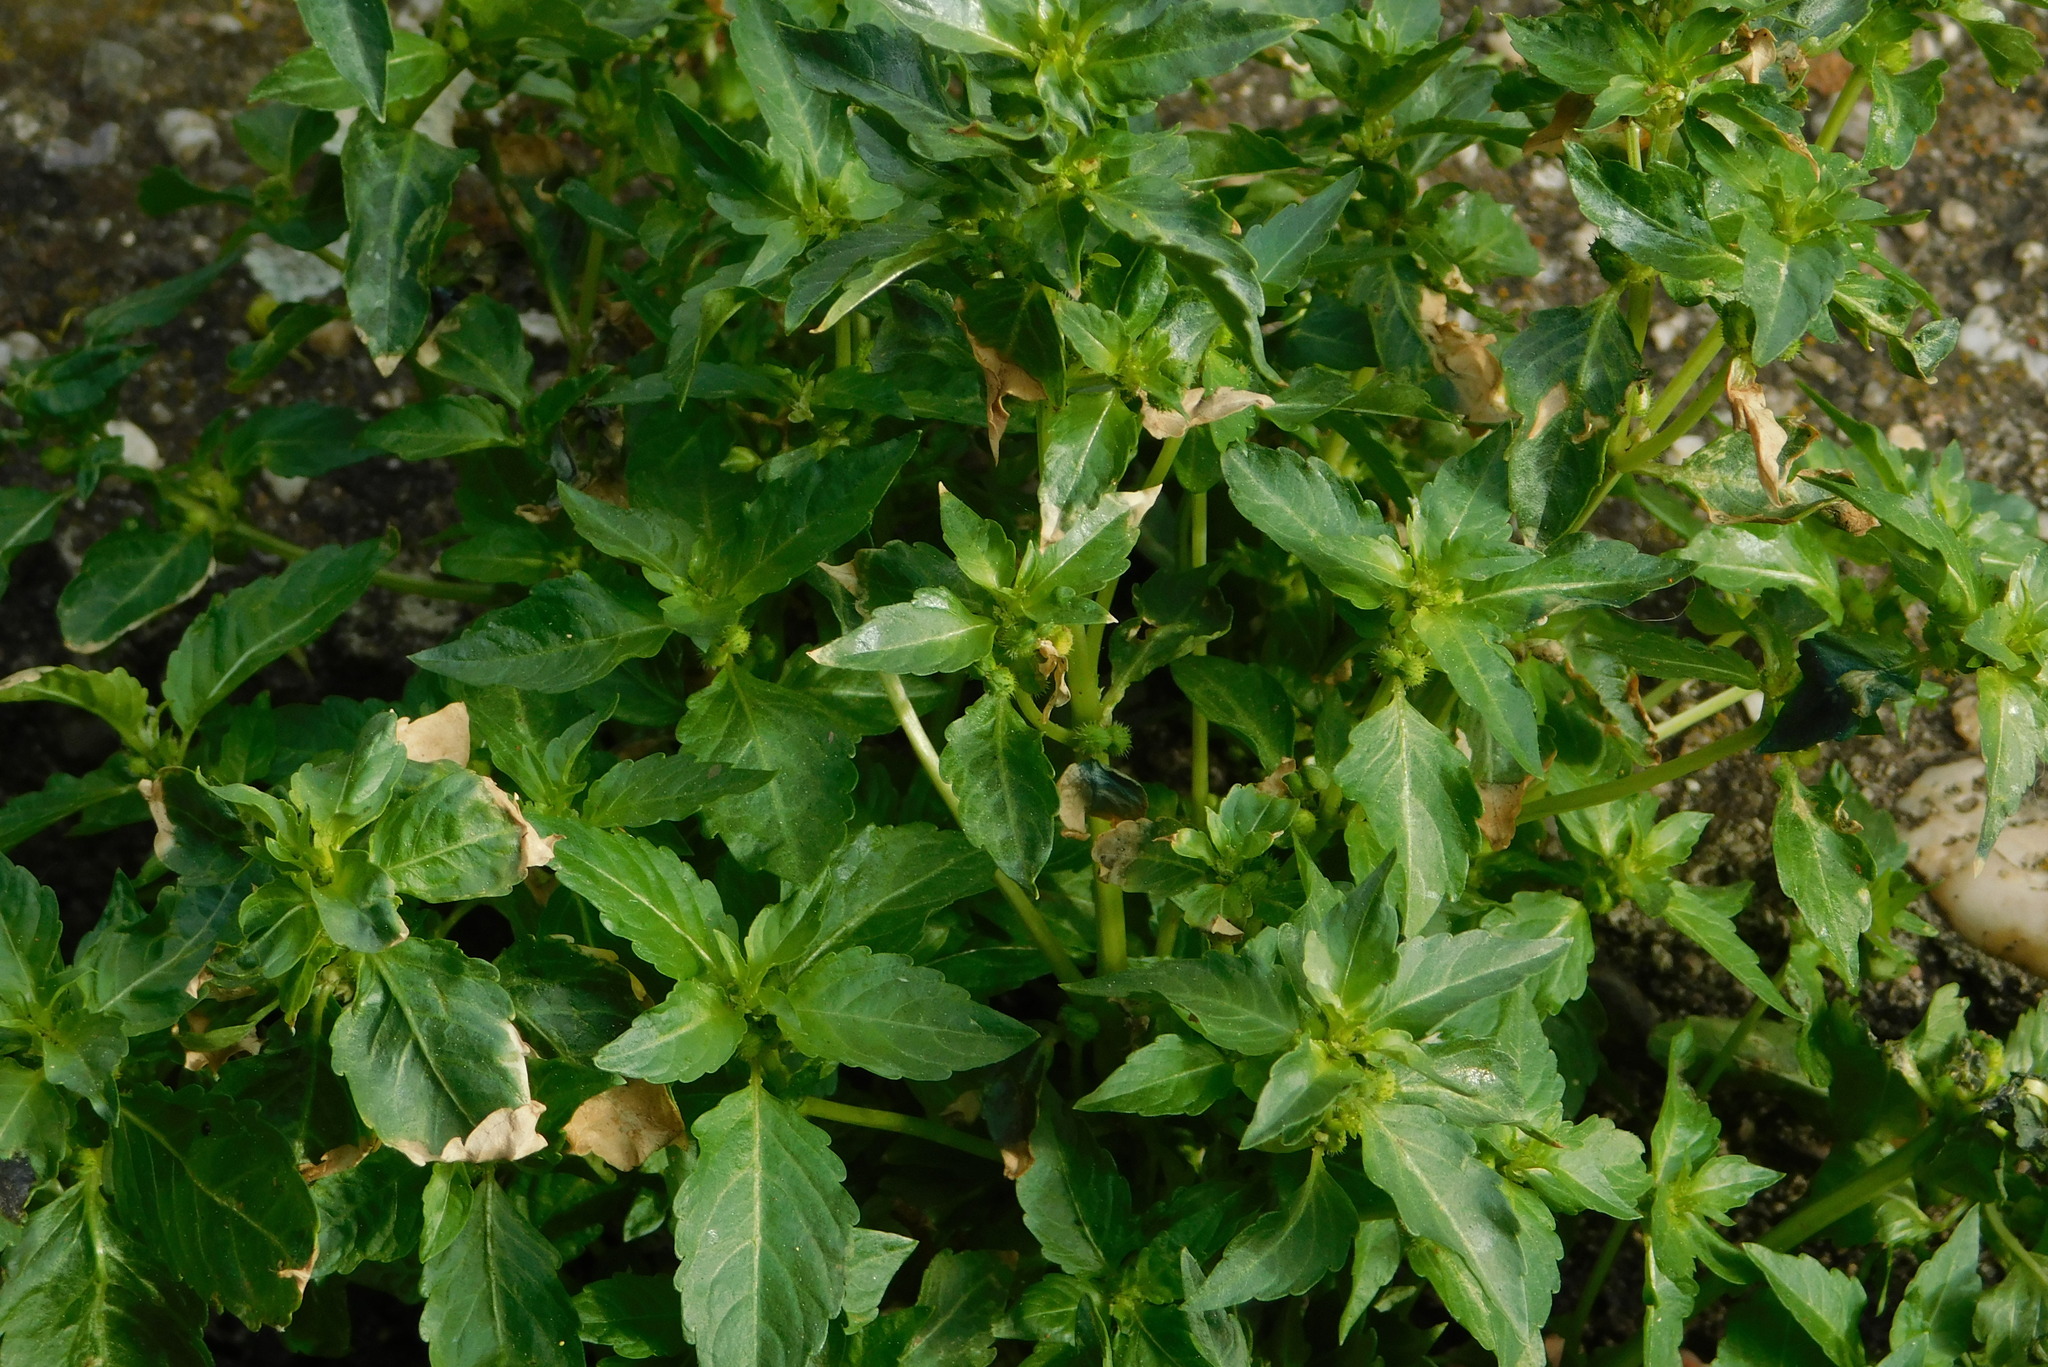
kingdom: Plantae
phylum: Tracheophyta
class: Magnoliopsida
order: Malpighiales
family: Euphorbiaceae
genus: Mercurialis
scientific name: Mercurialis annua
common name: Annual mercury
